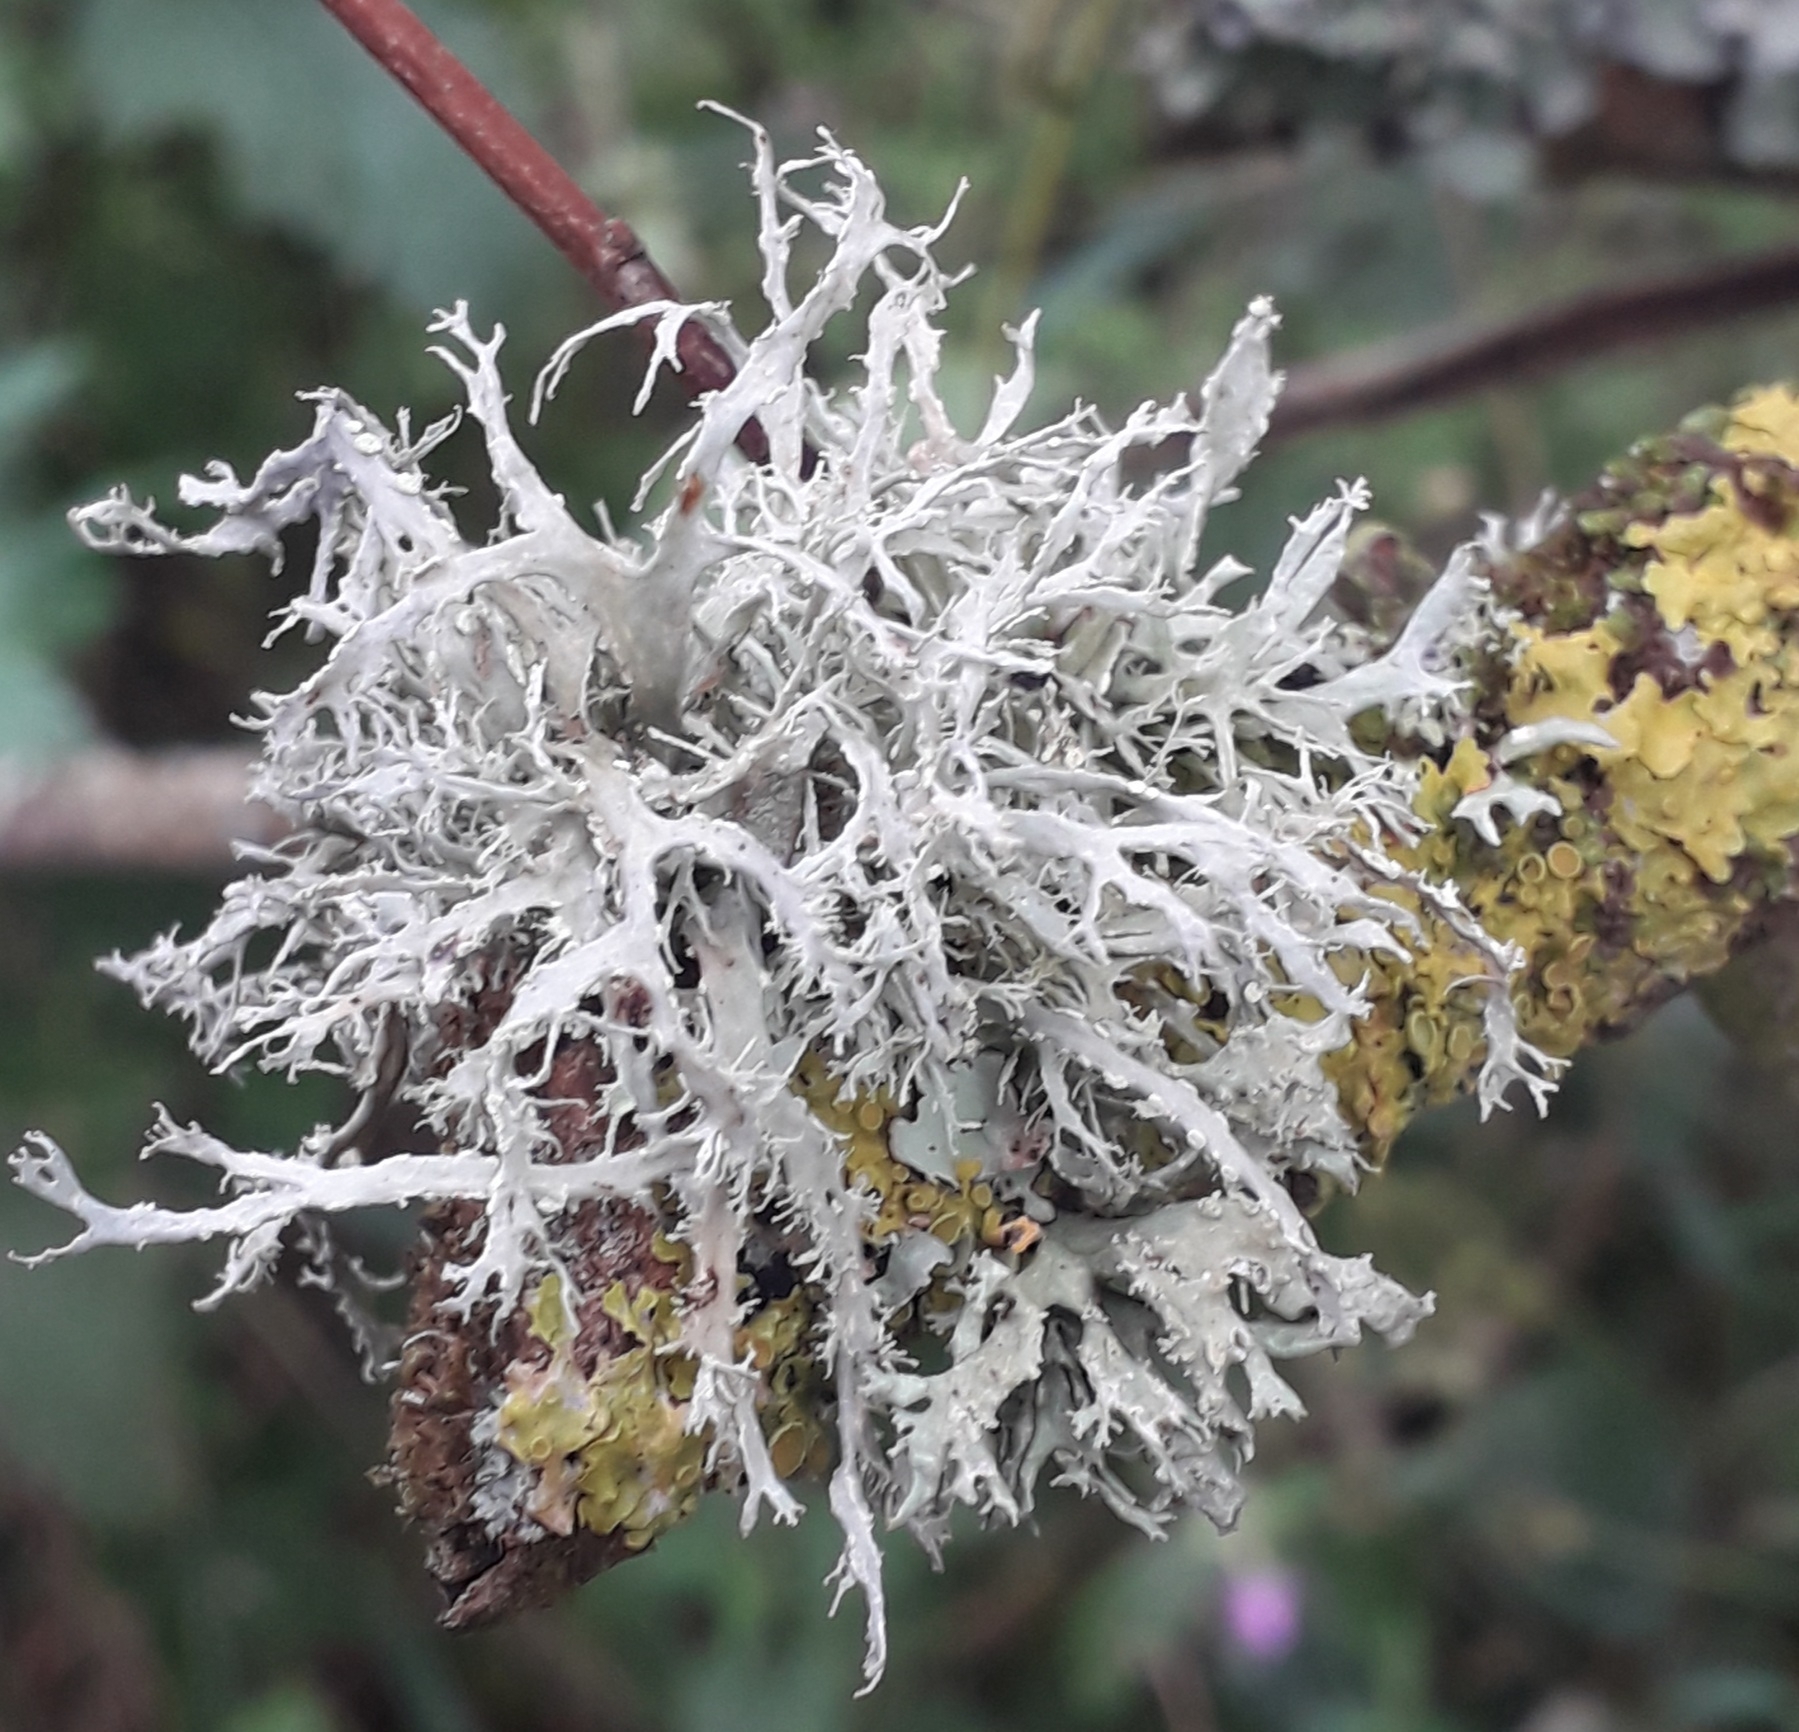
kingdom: Fungi
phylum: Ascomycota
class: Lecanoromycetes
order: Lecanorales
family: Ramalinaceae
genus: Ramalina
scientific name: Ramalina farinacea
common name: Farinose cartilage lichen
